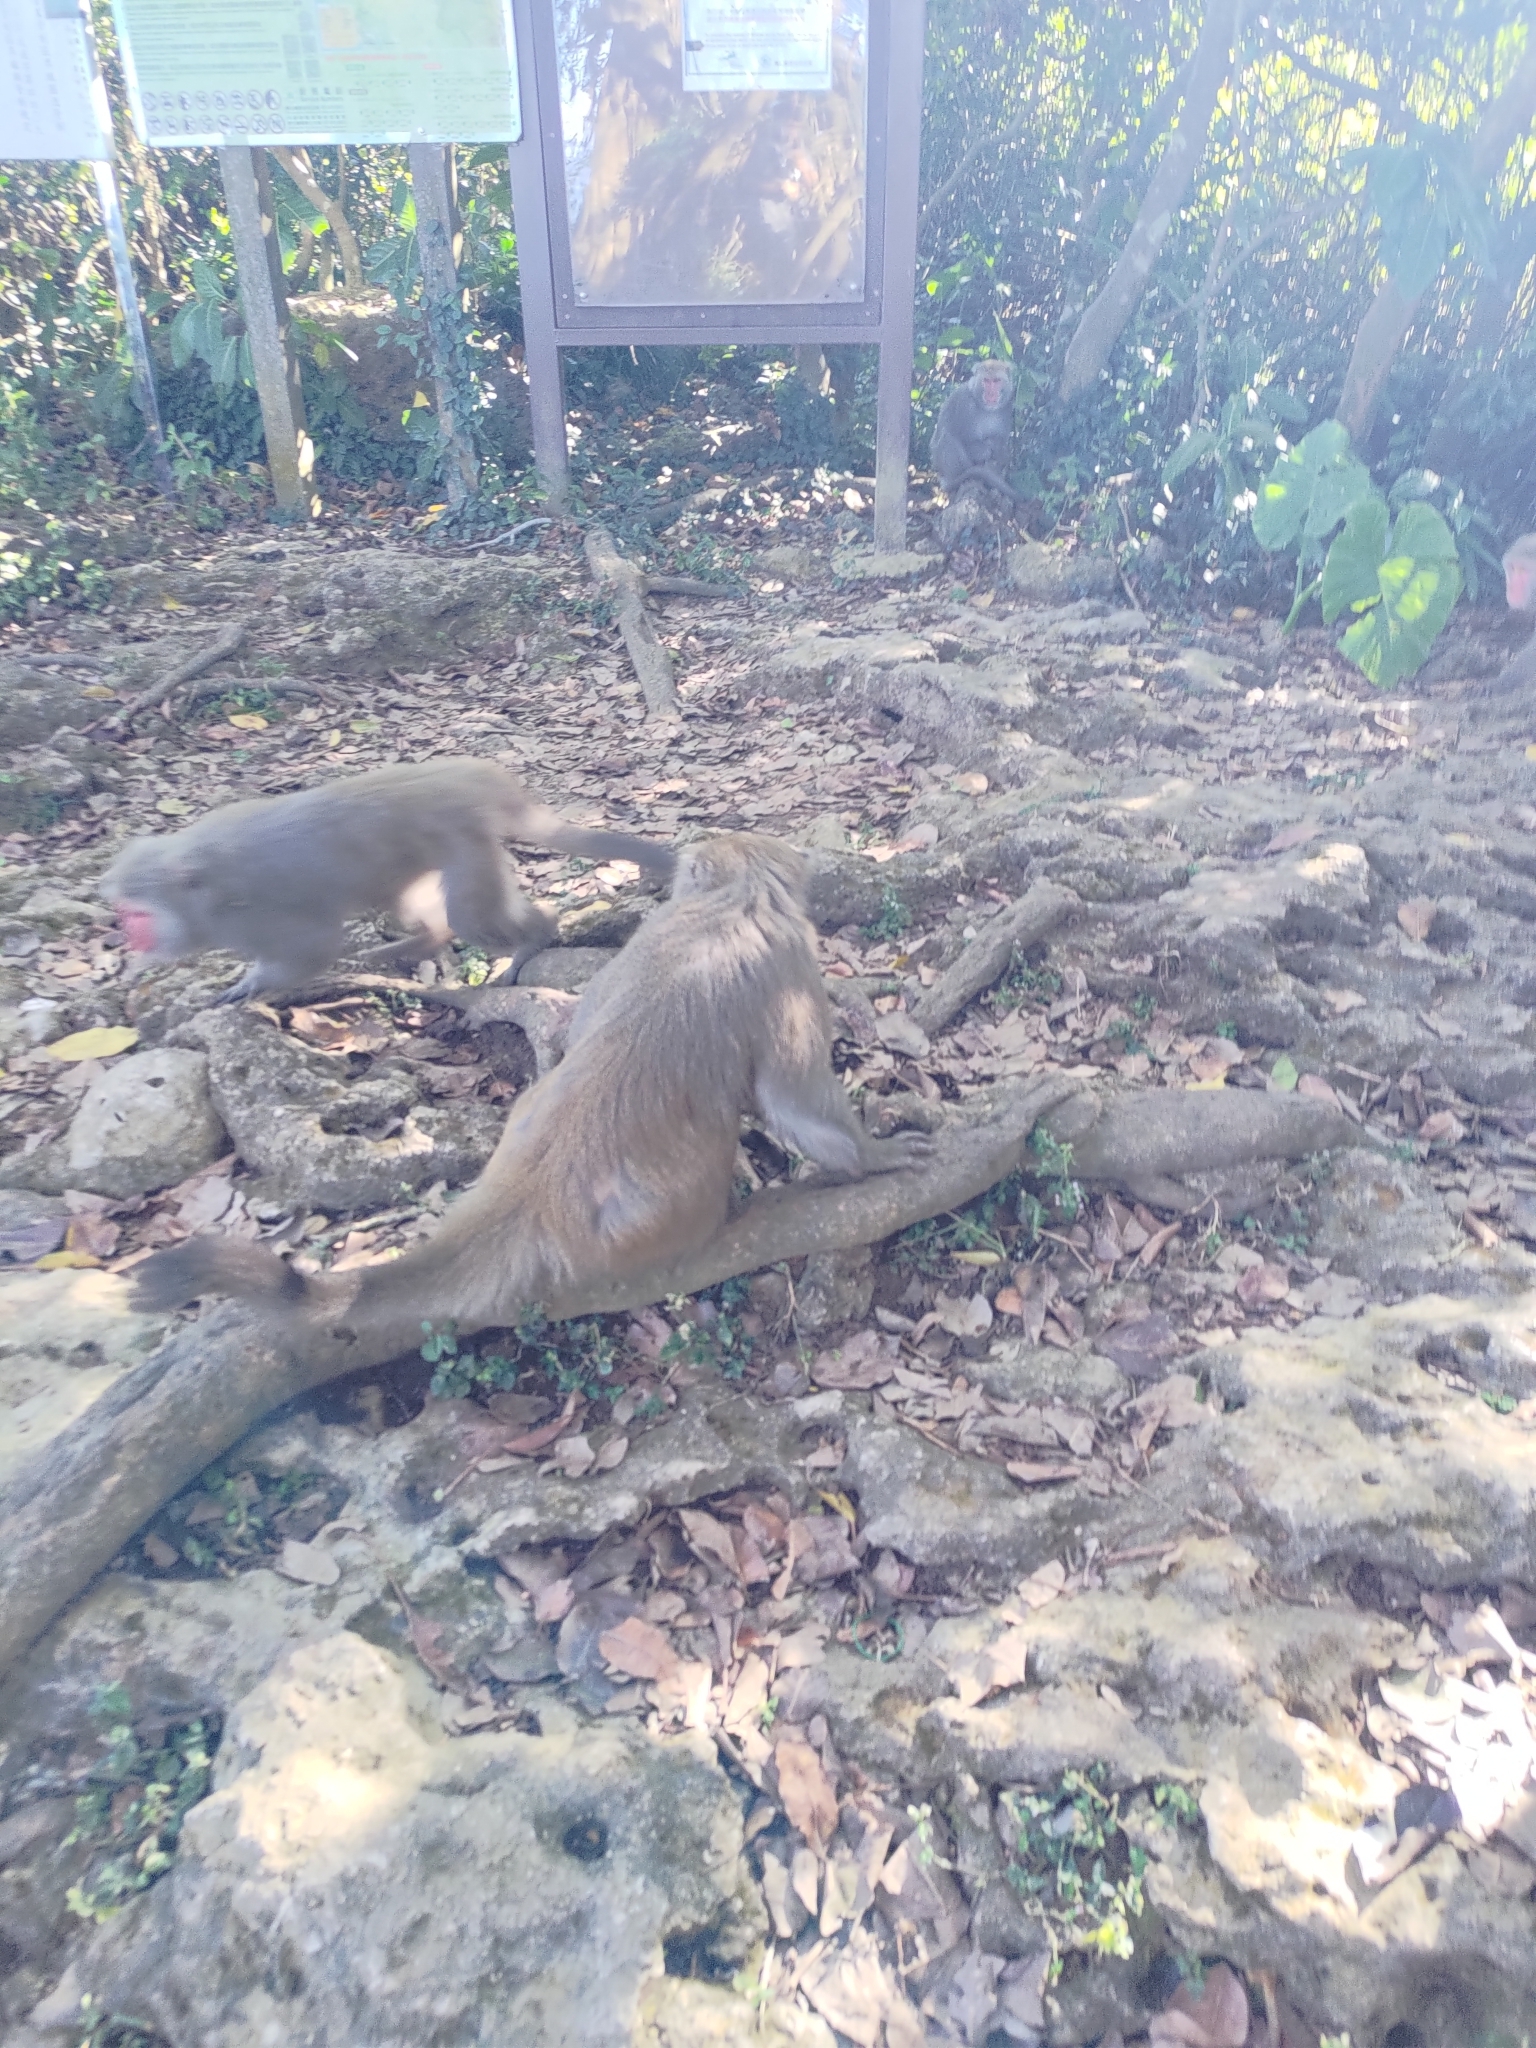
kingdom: Animalia
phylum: Chordata
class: Mammalia
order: Primates
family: Cercopithecidae
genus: Macaca
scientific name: Macaca cyclopis
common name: Formosan rock macaque
